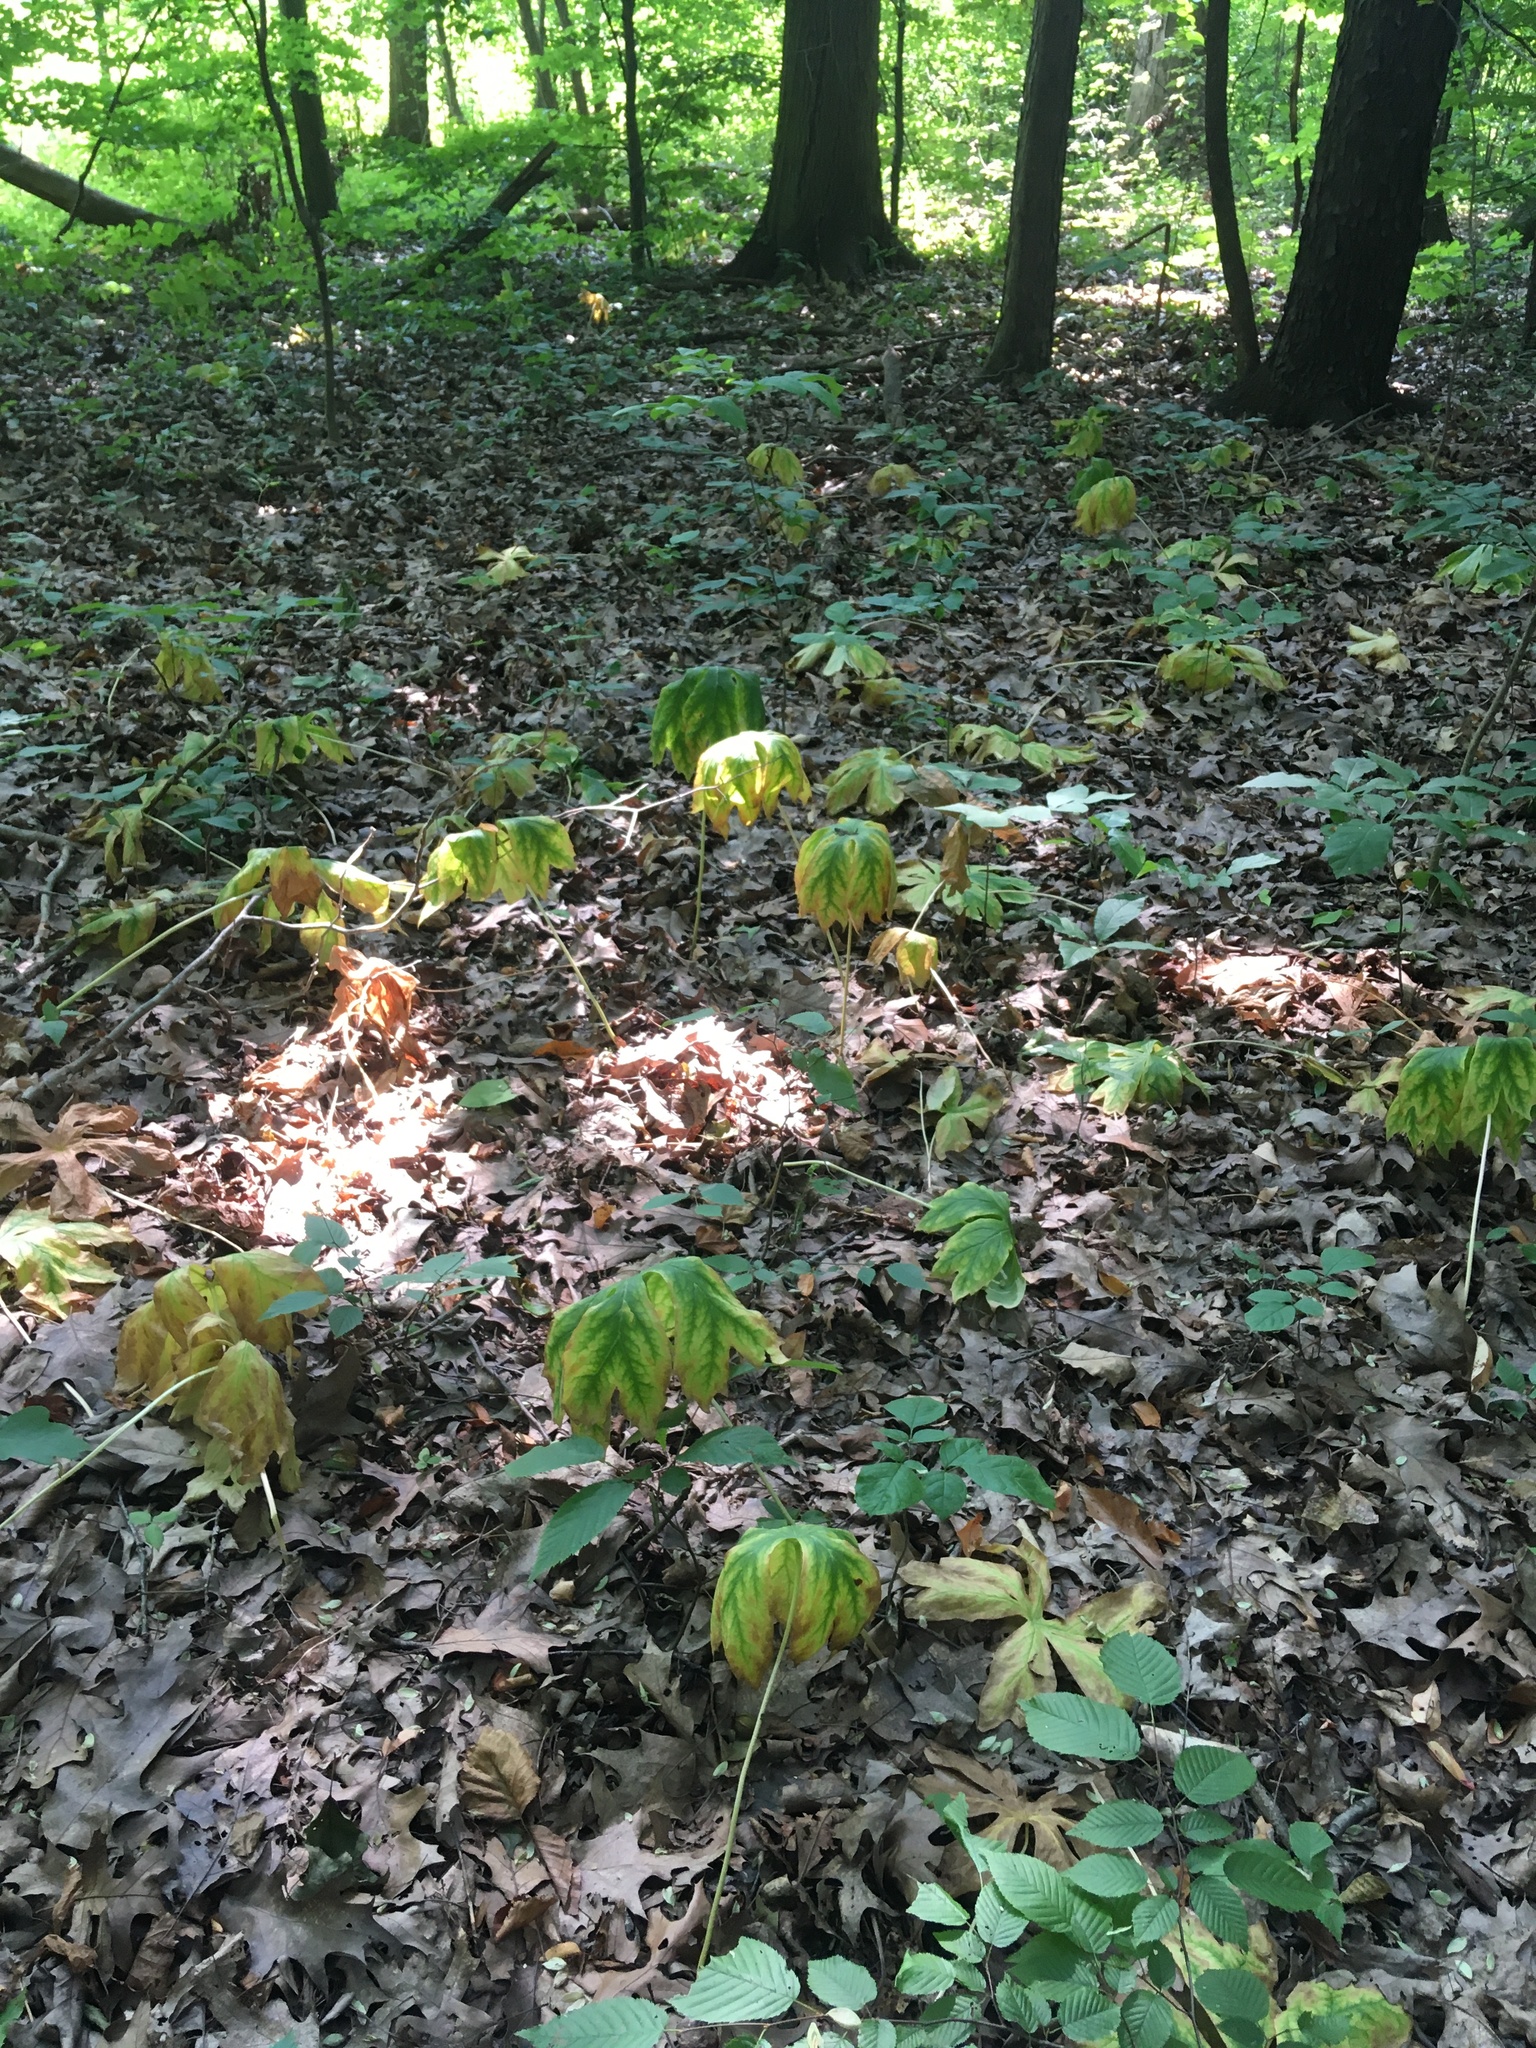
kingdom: Plantae
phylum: Tracheophyta
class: Magnoliopsida
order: Ranunculales
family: Berberidaceae
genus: Podophyllum
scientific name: Podophyllum peltatum
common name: Wild mandrake
